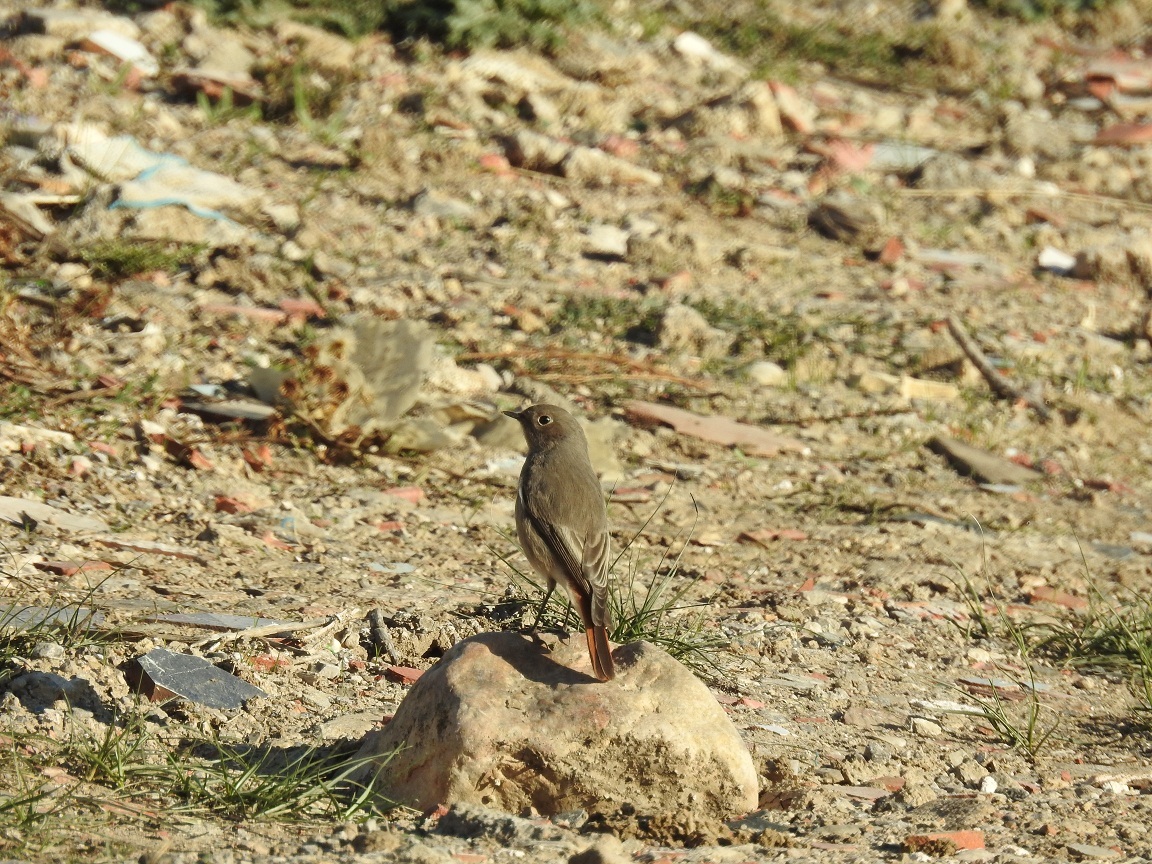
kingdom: Animalia
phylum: Chordata
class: Aves
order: Passeriformes
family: Muscicapidae
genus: Phoenicurus
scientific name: Phoenicurus ochruros
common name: Black redstart
